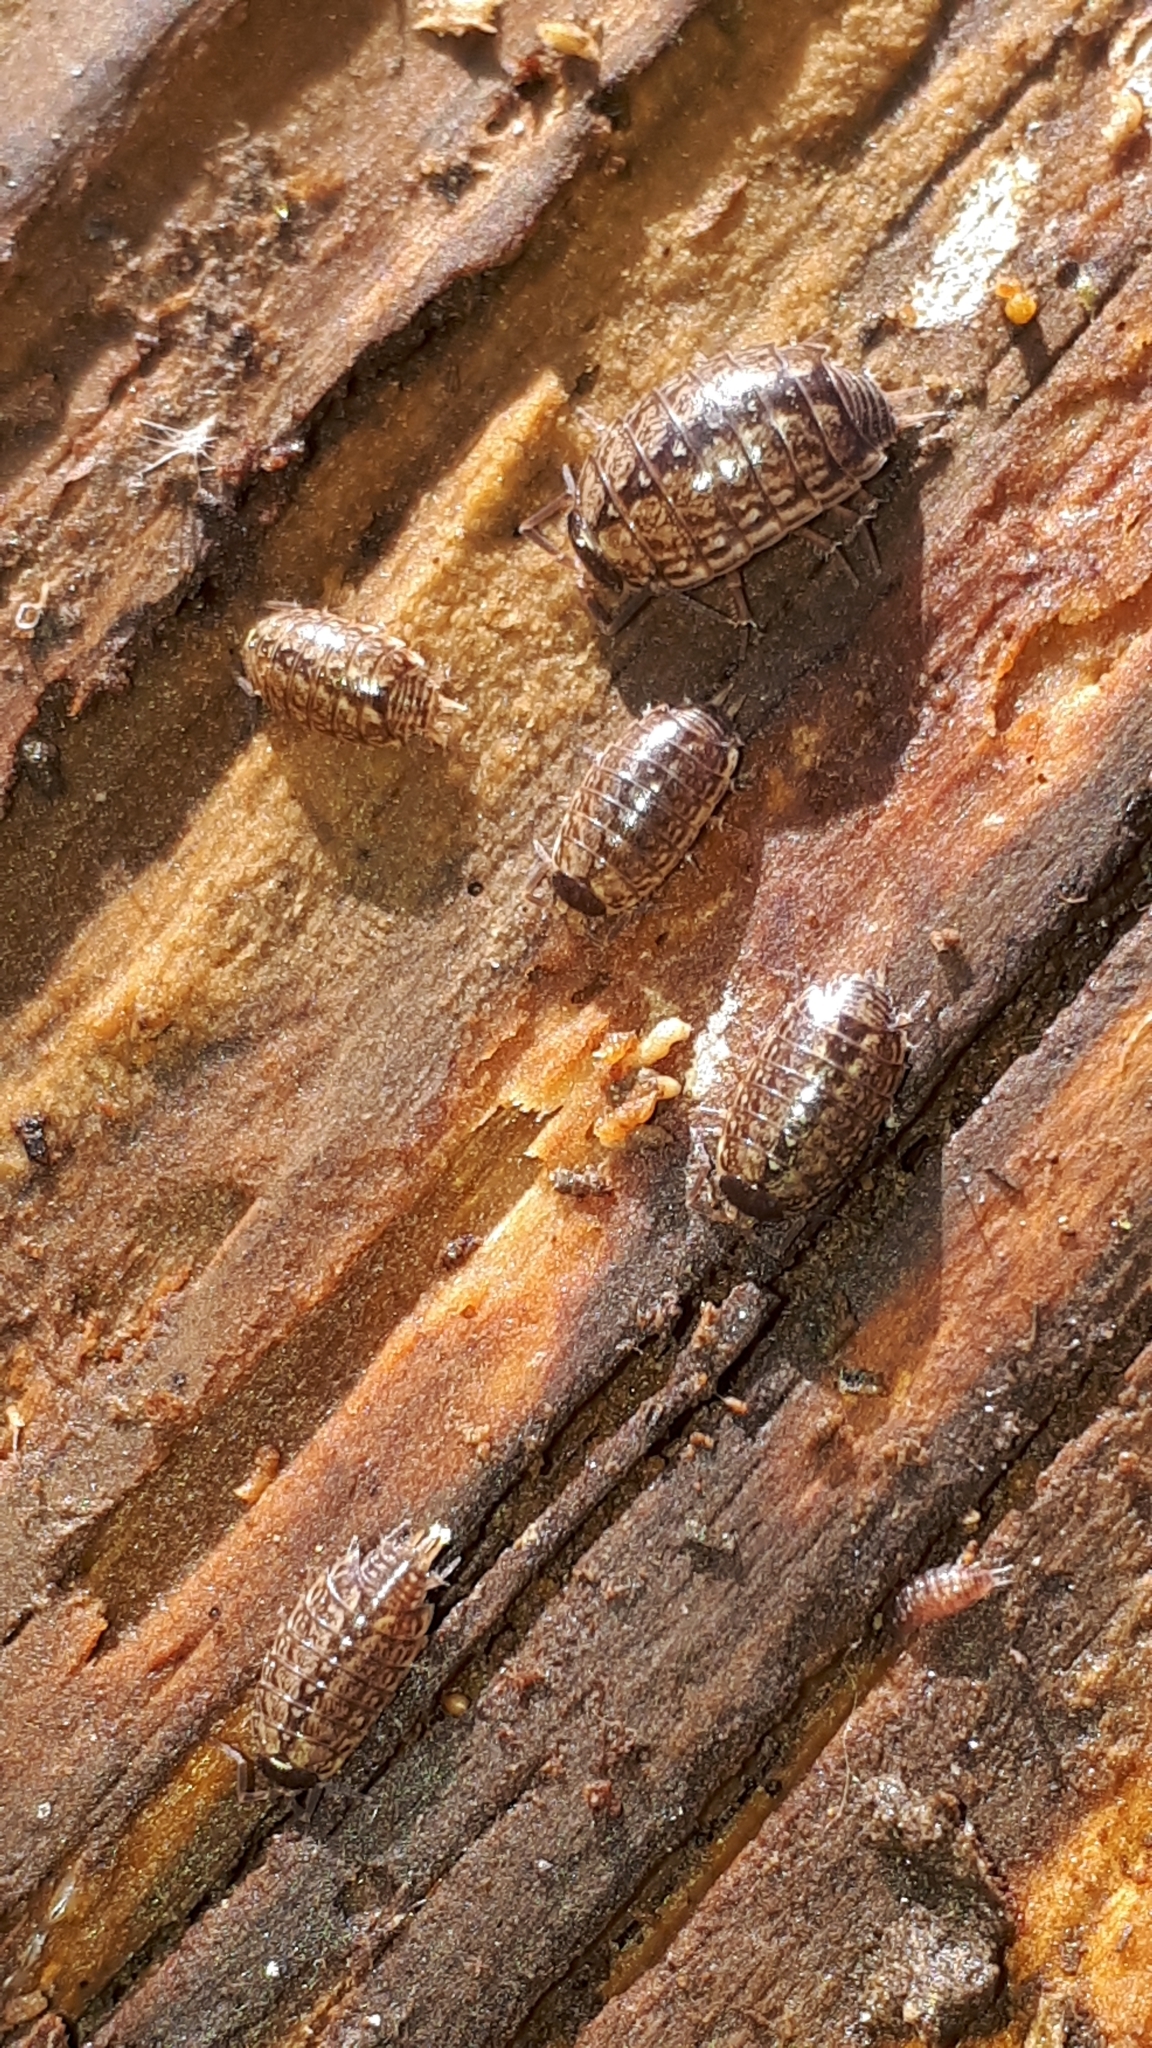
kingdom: Animalia
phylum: Arthropoda
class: Malacostraca
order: Isopoda
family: Philosciidae
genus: Philoscia
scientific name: Philoscia muscorum
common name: Common striped woodlouse
